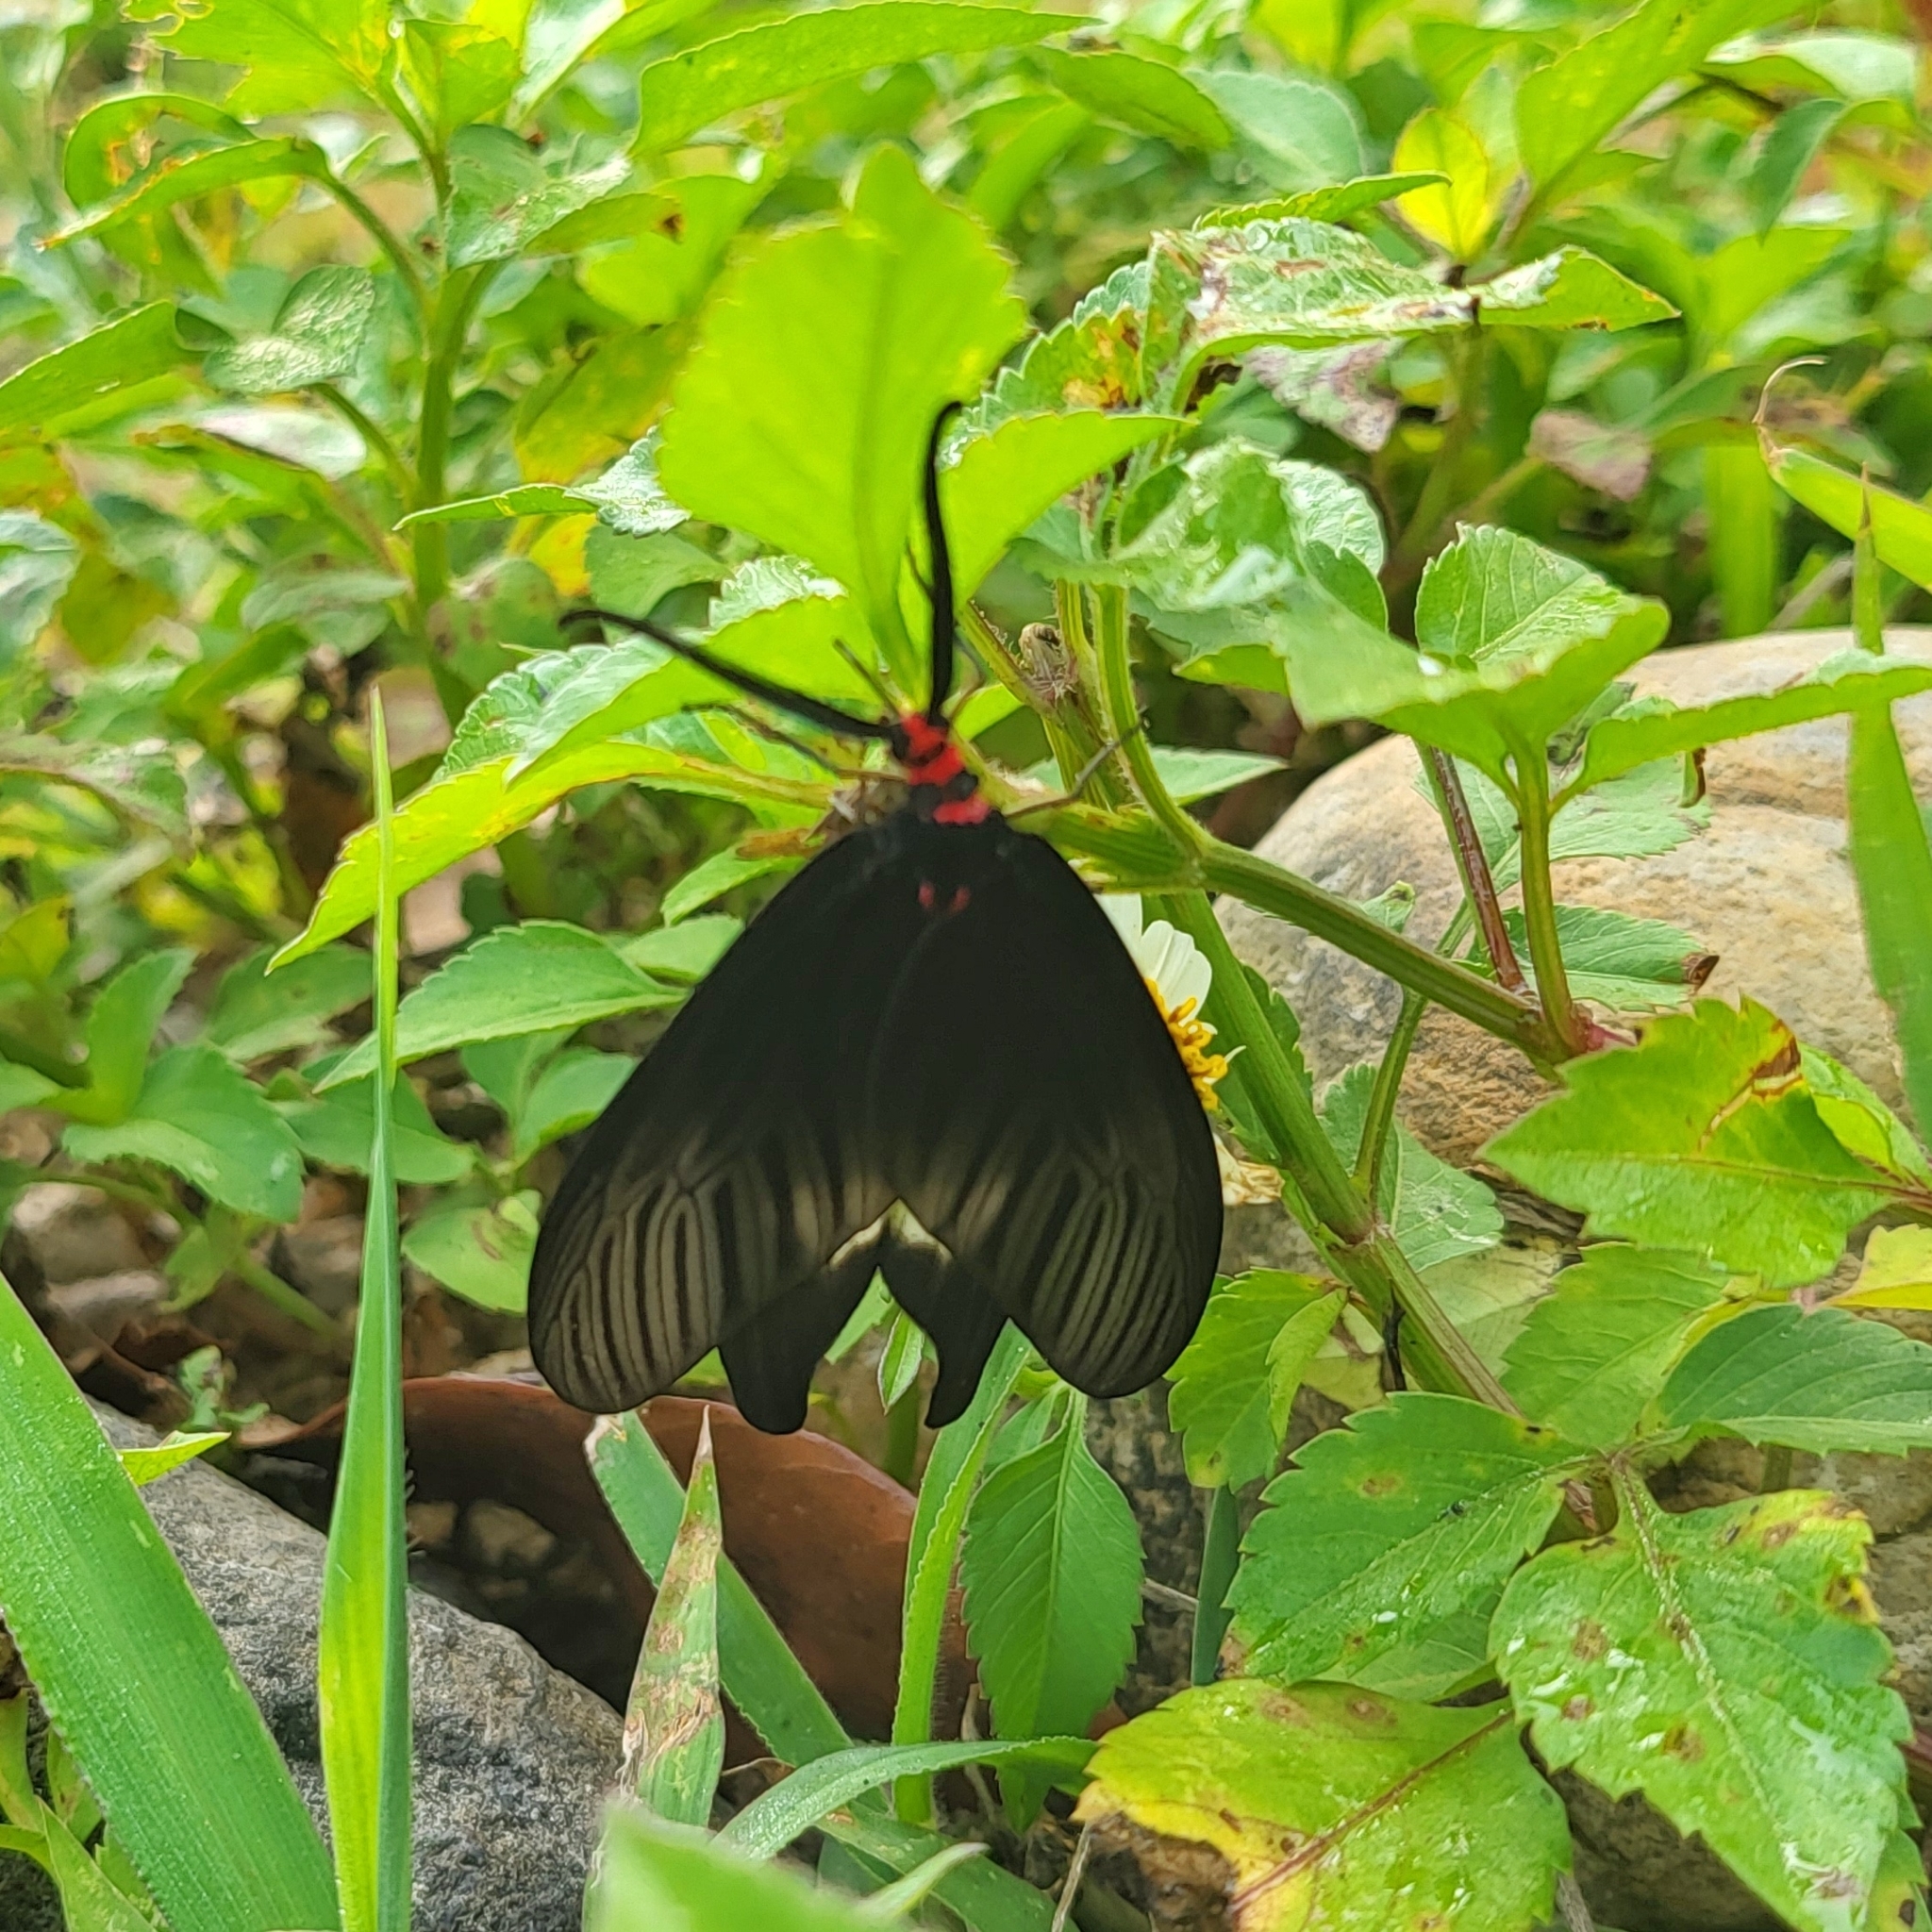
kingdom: Animalia
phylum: Arthropoda
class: Insecta
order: Lepidoptera
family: Zygaenidae
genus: Histia
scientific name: Histia flabellicornis
